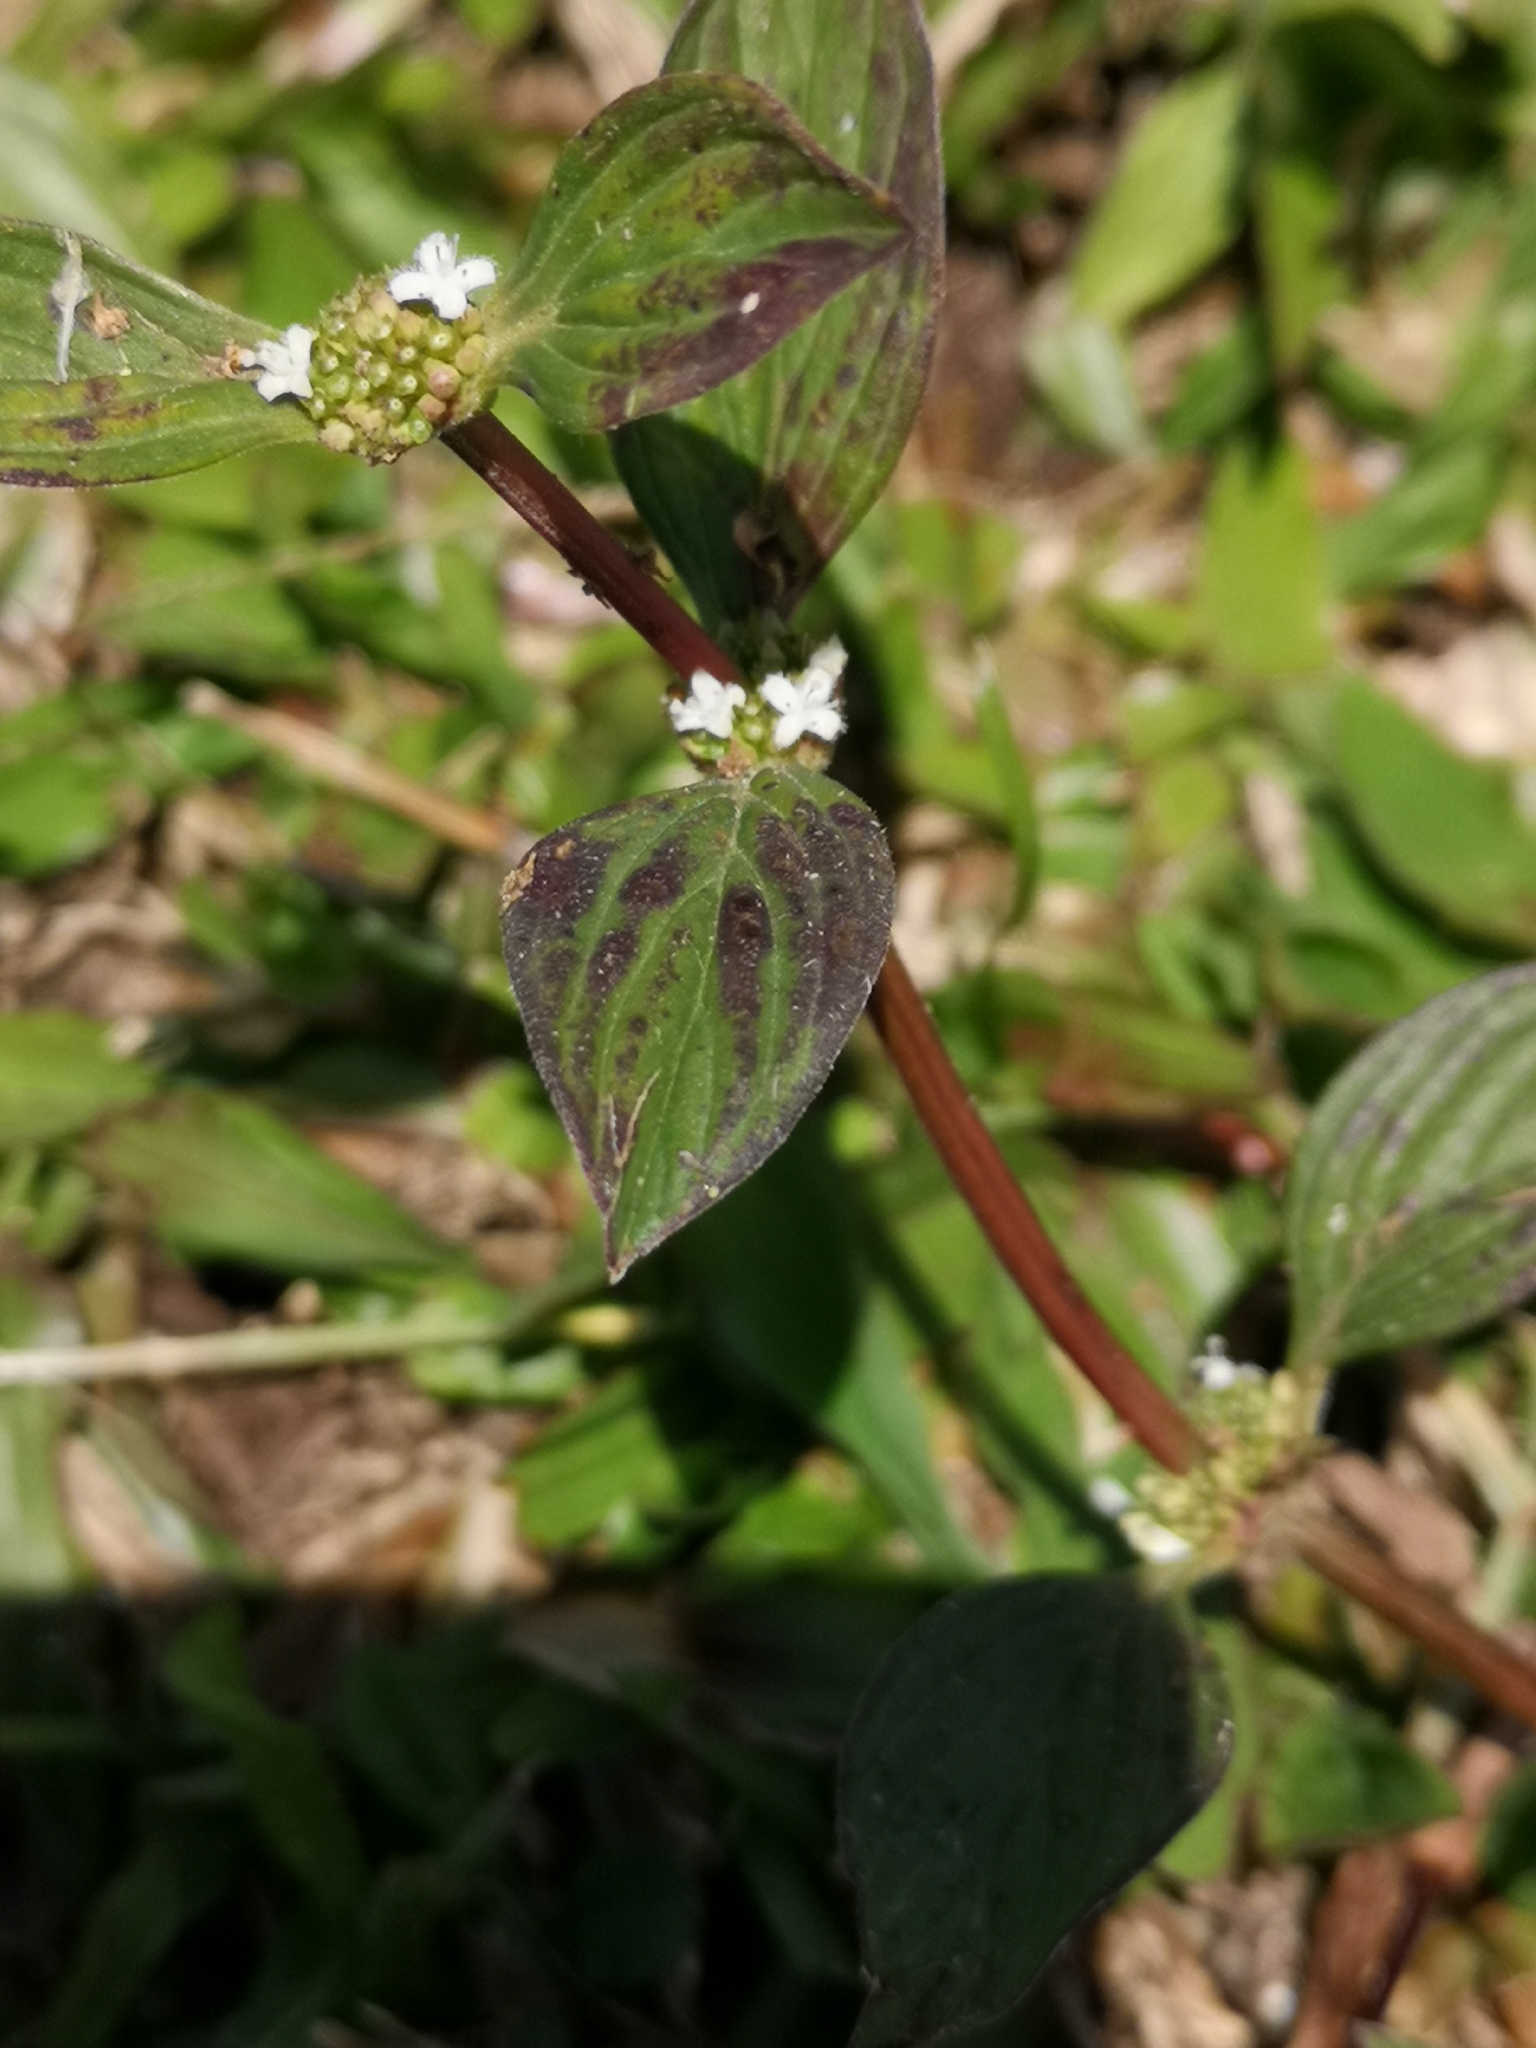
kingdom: Plantae
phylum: Tracheophyta
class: Magnoliopsida
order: Gentianales
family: Rubiaceae
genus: Spermacoce
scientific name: Spermacoce remota
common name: Woodland false buttonweed
